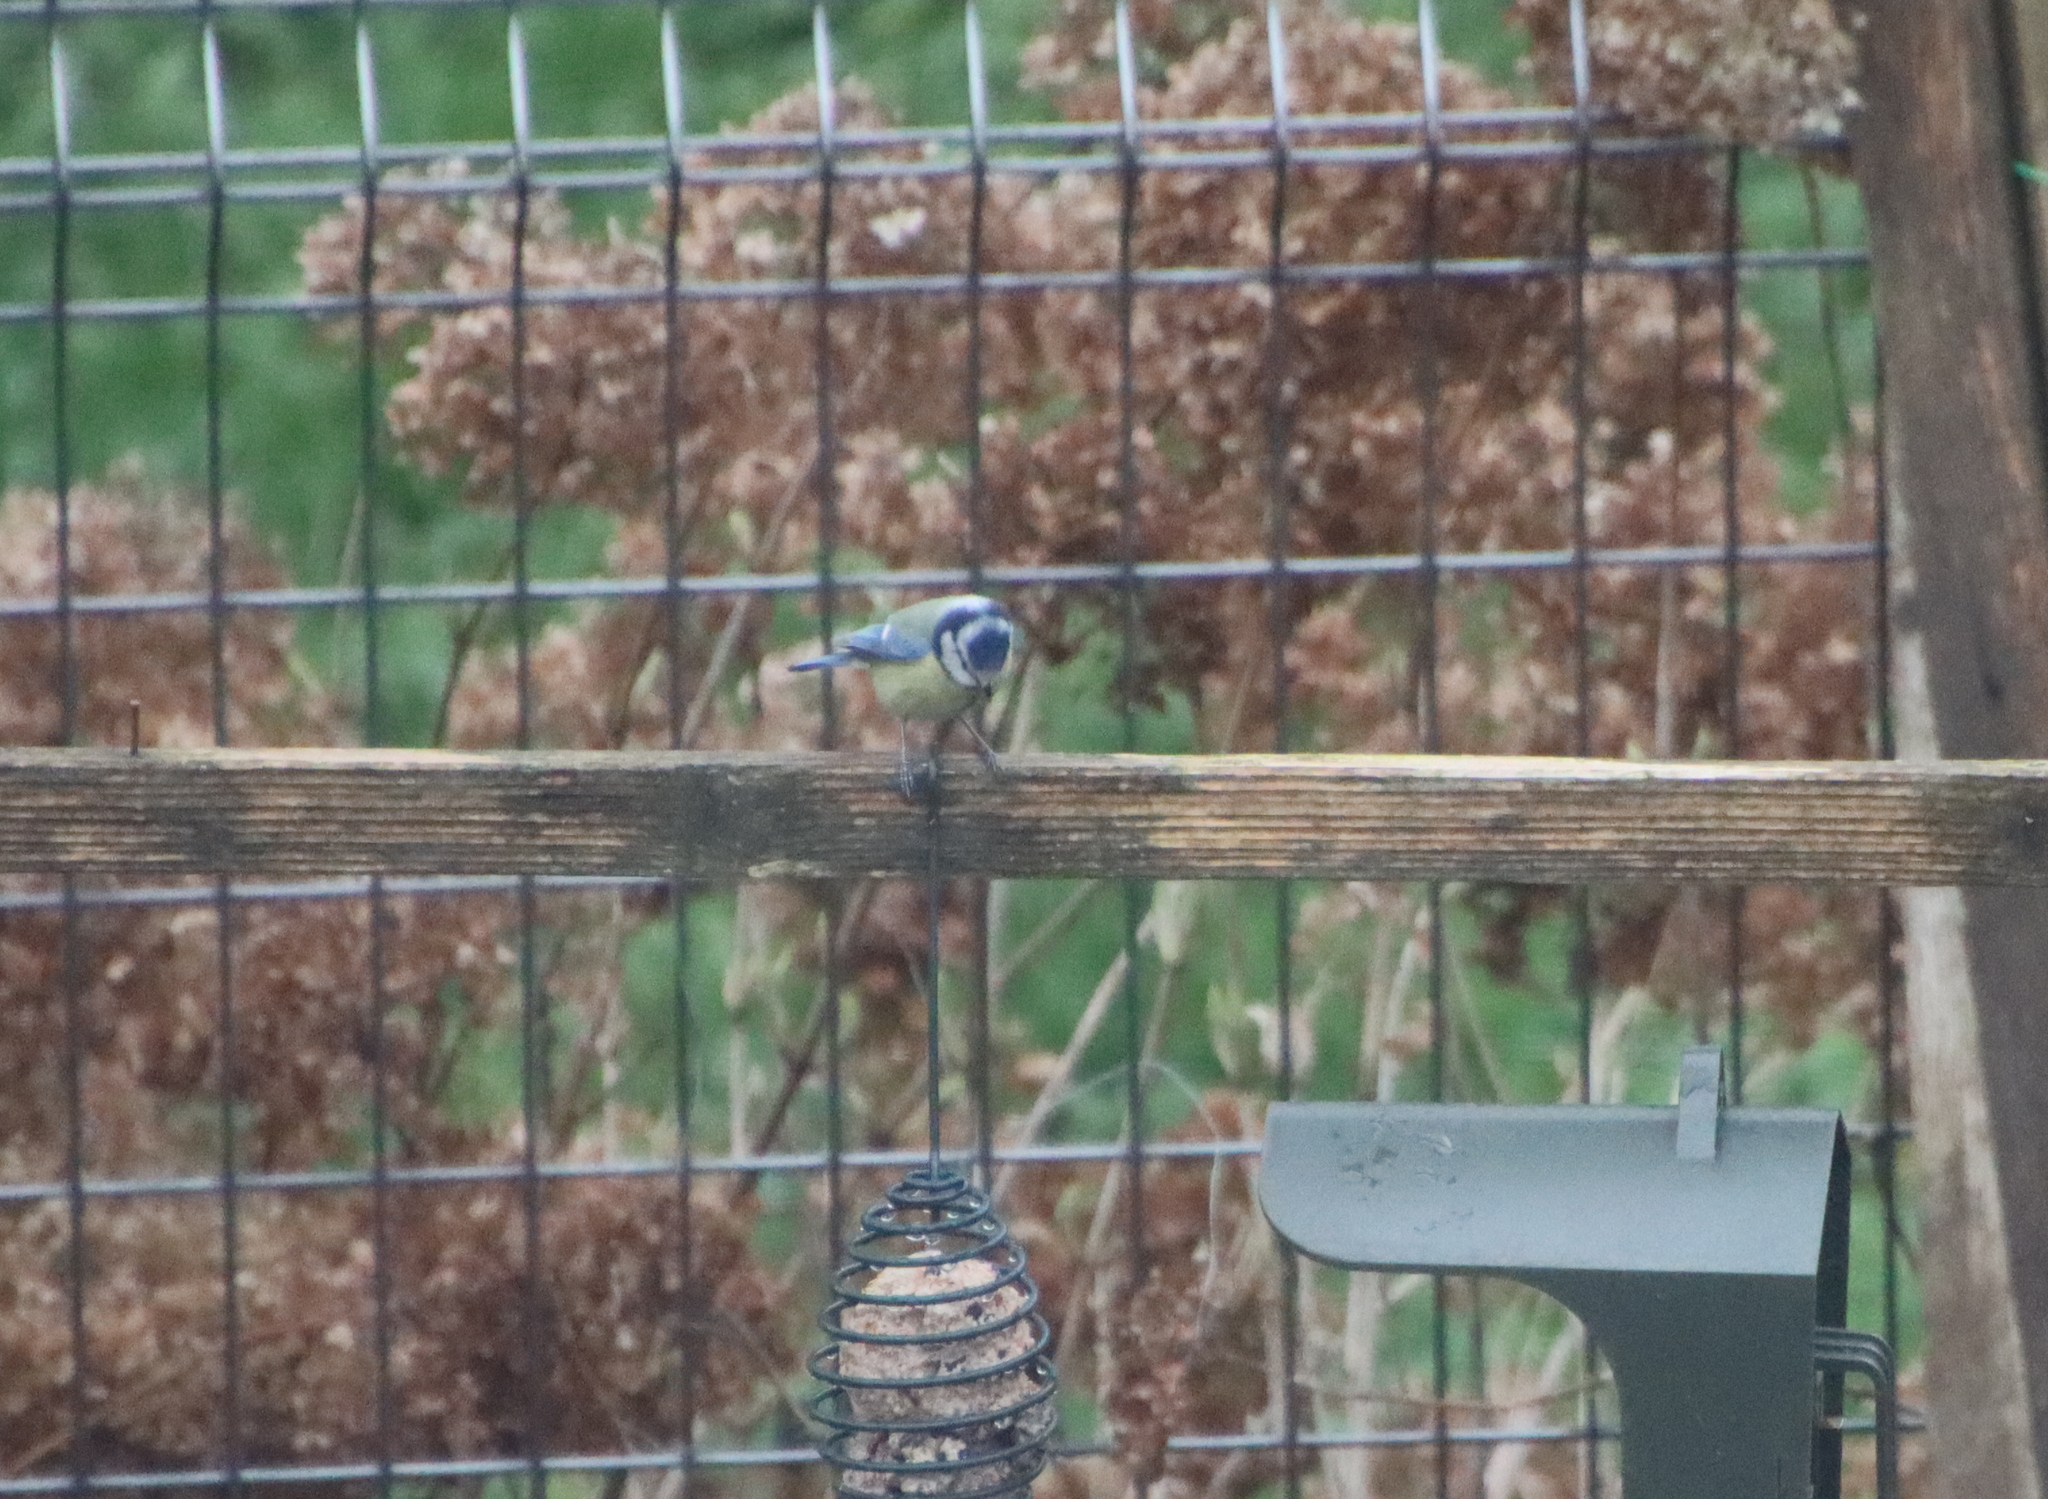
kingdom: Animalia
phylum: Chordata
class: Aves
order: Passeriformes
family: Paridae
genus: Cyanistes
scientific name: Cyanistes caeruleus
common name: Eurasian blue tit
